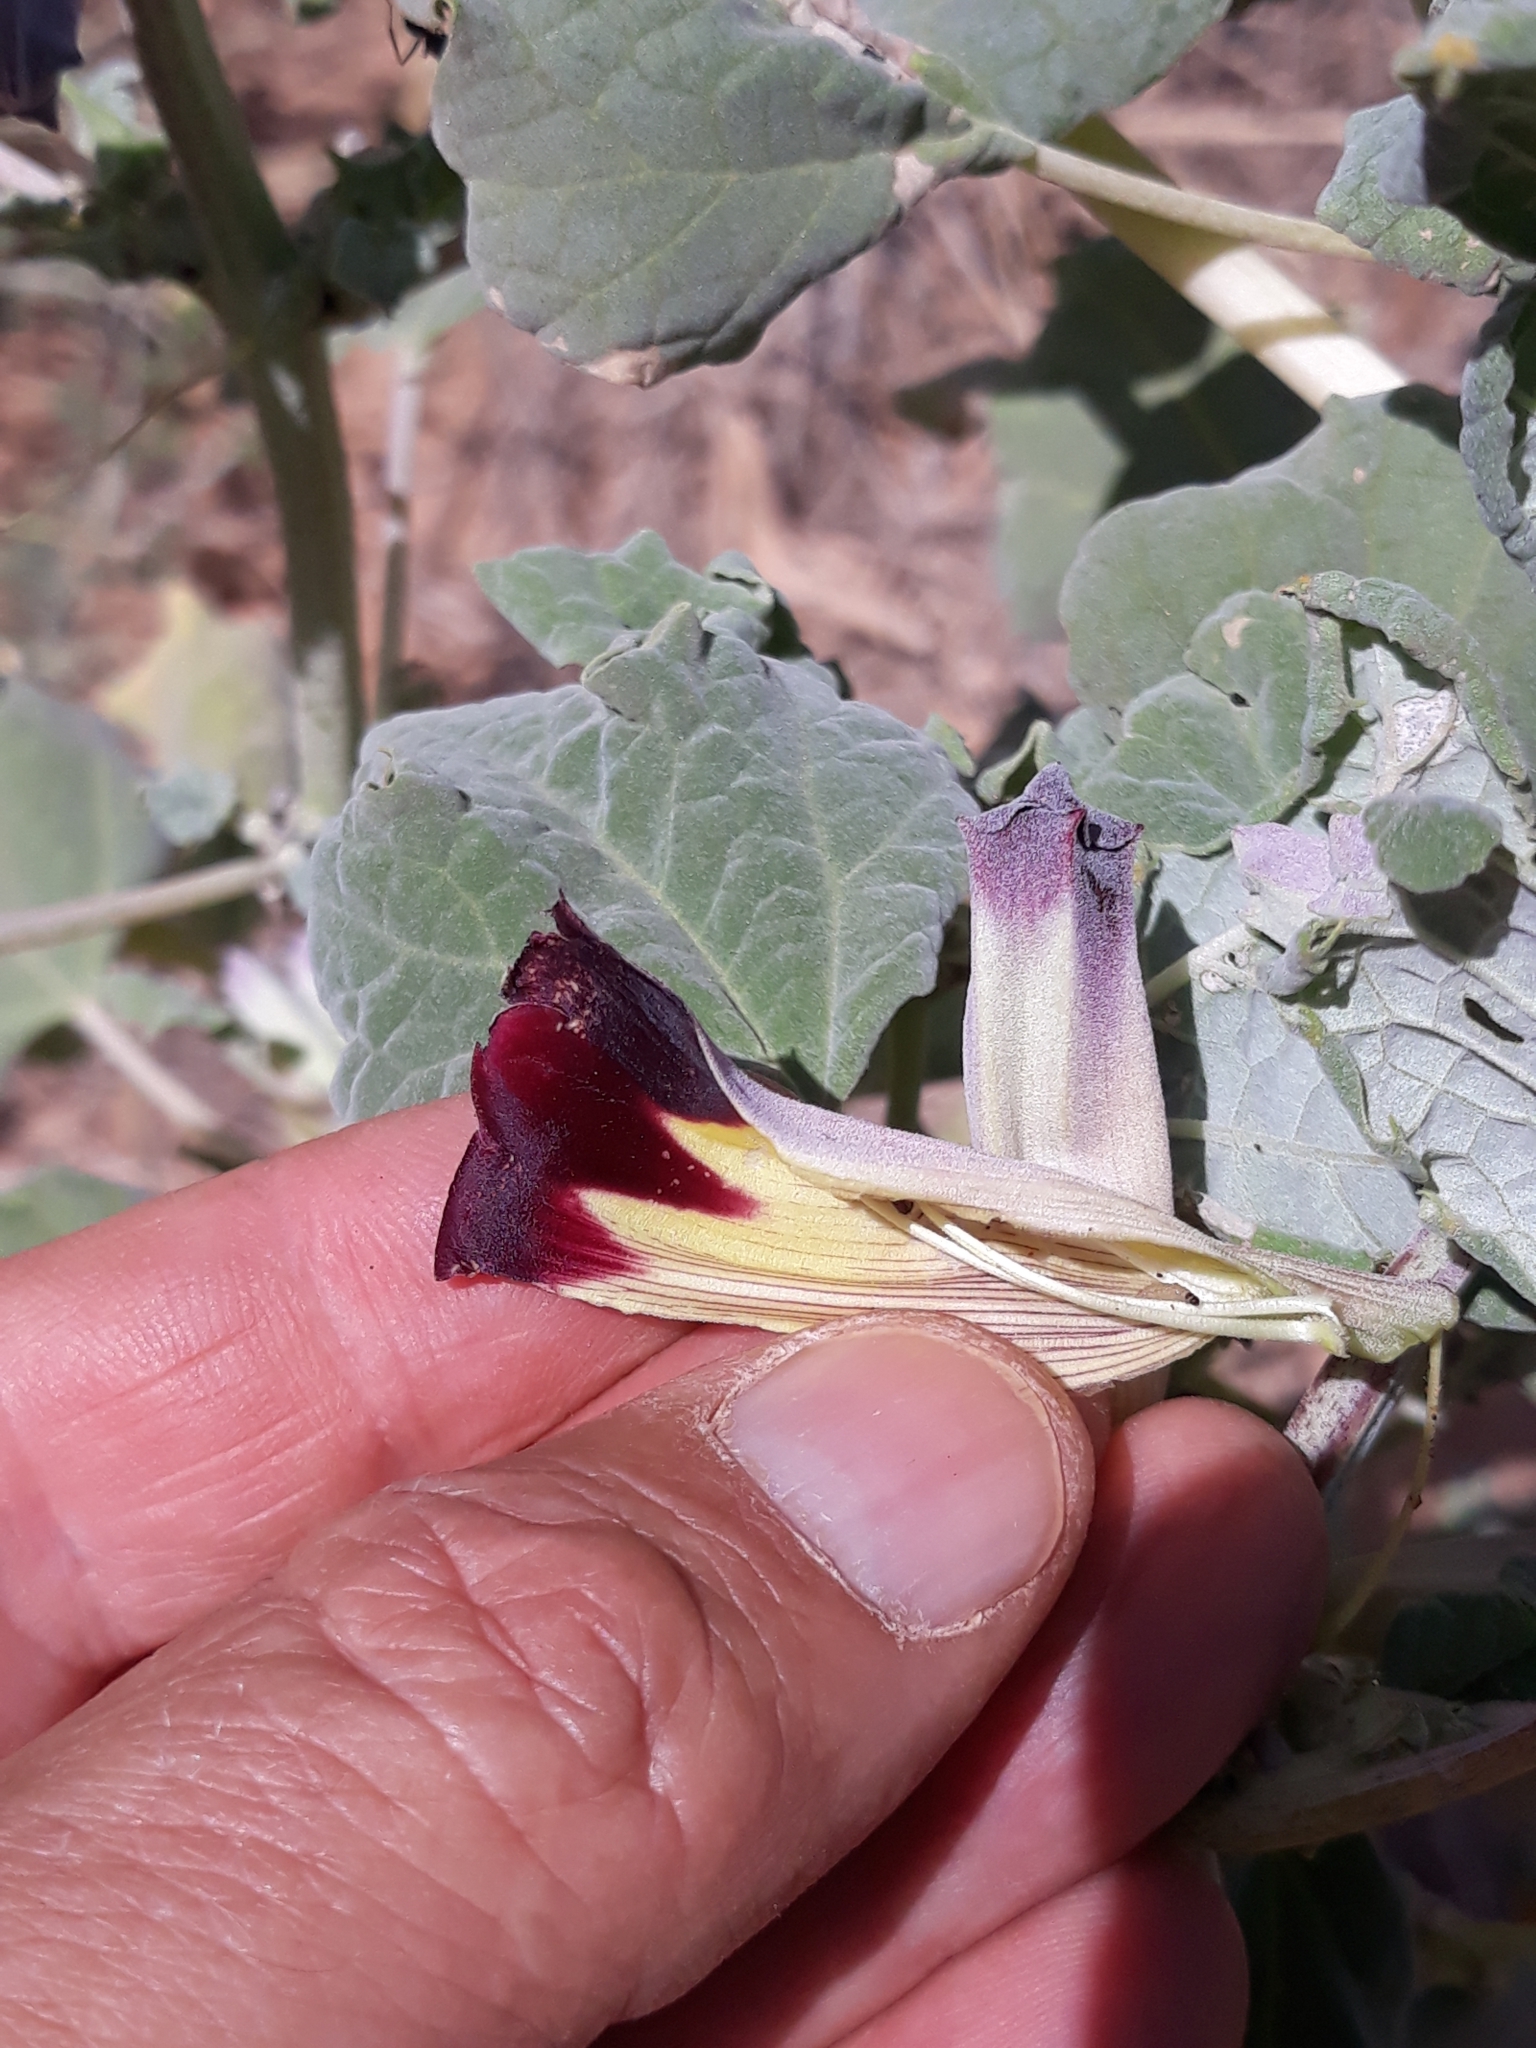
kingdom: Plantae
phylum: Tracheophyta
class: Magnoliopsida
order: Lamiales
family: Pedaliaceae
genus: Rogeria
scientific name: Rogeria adenophylla
